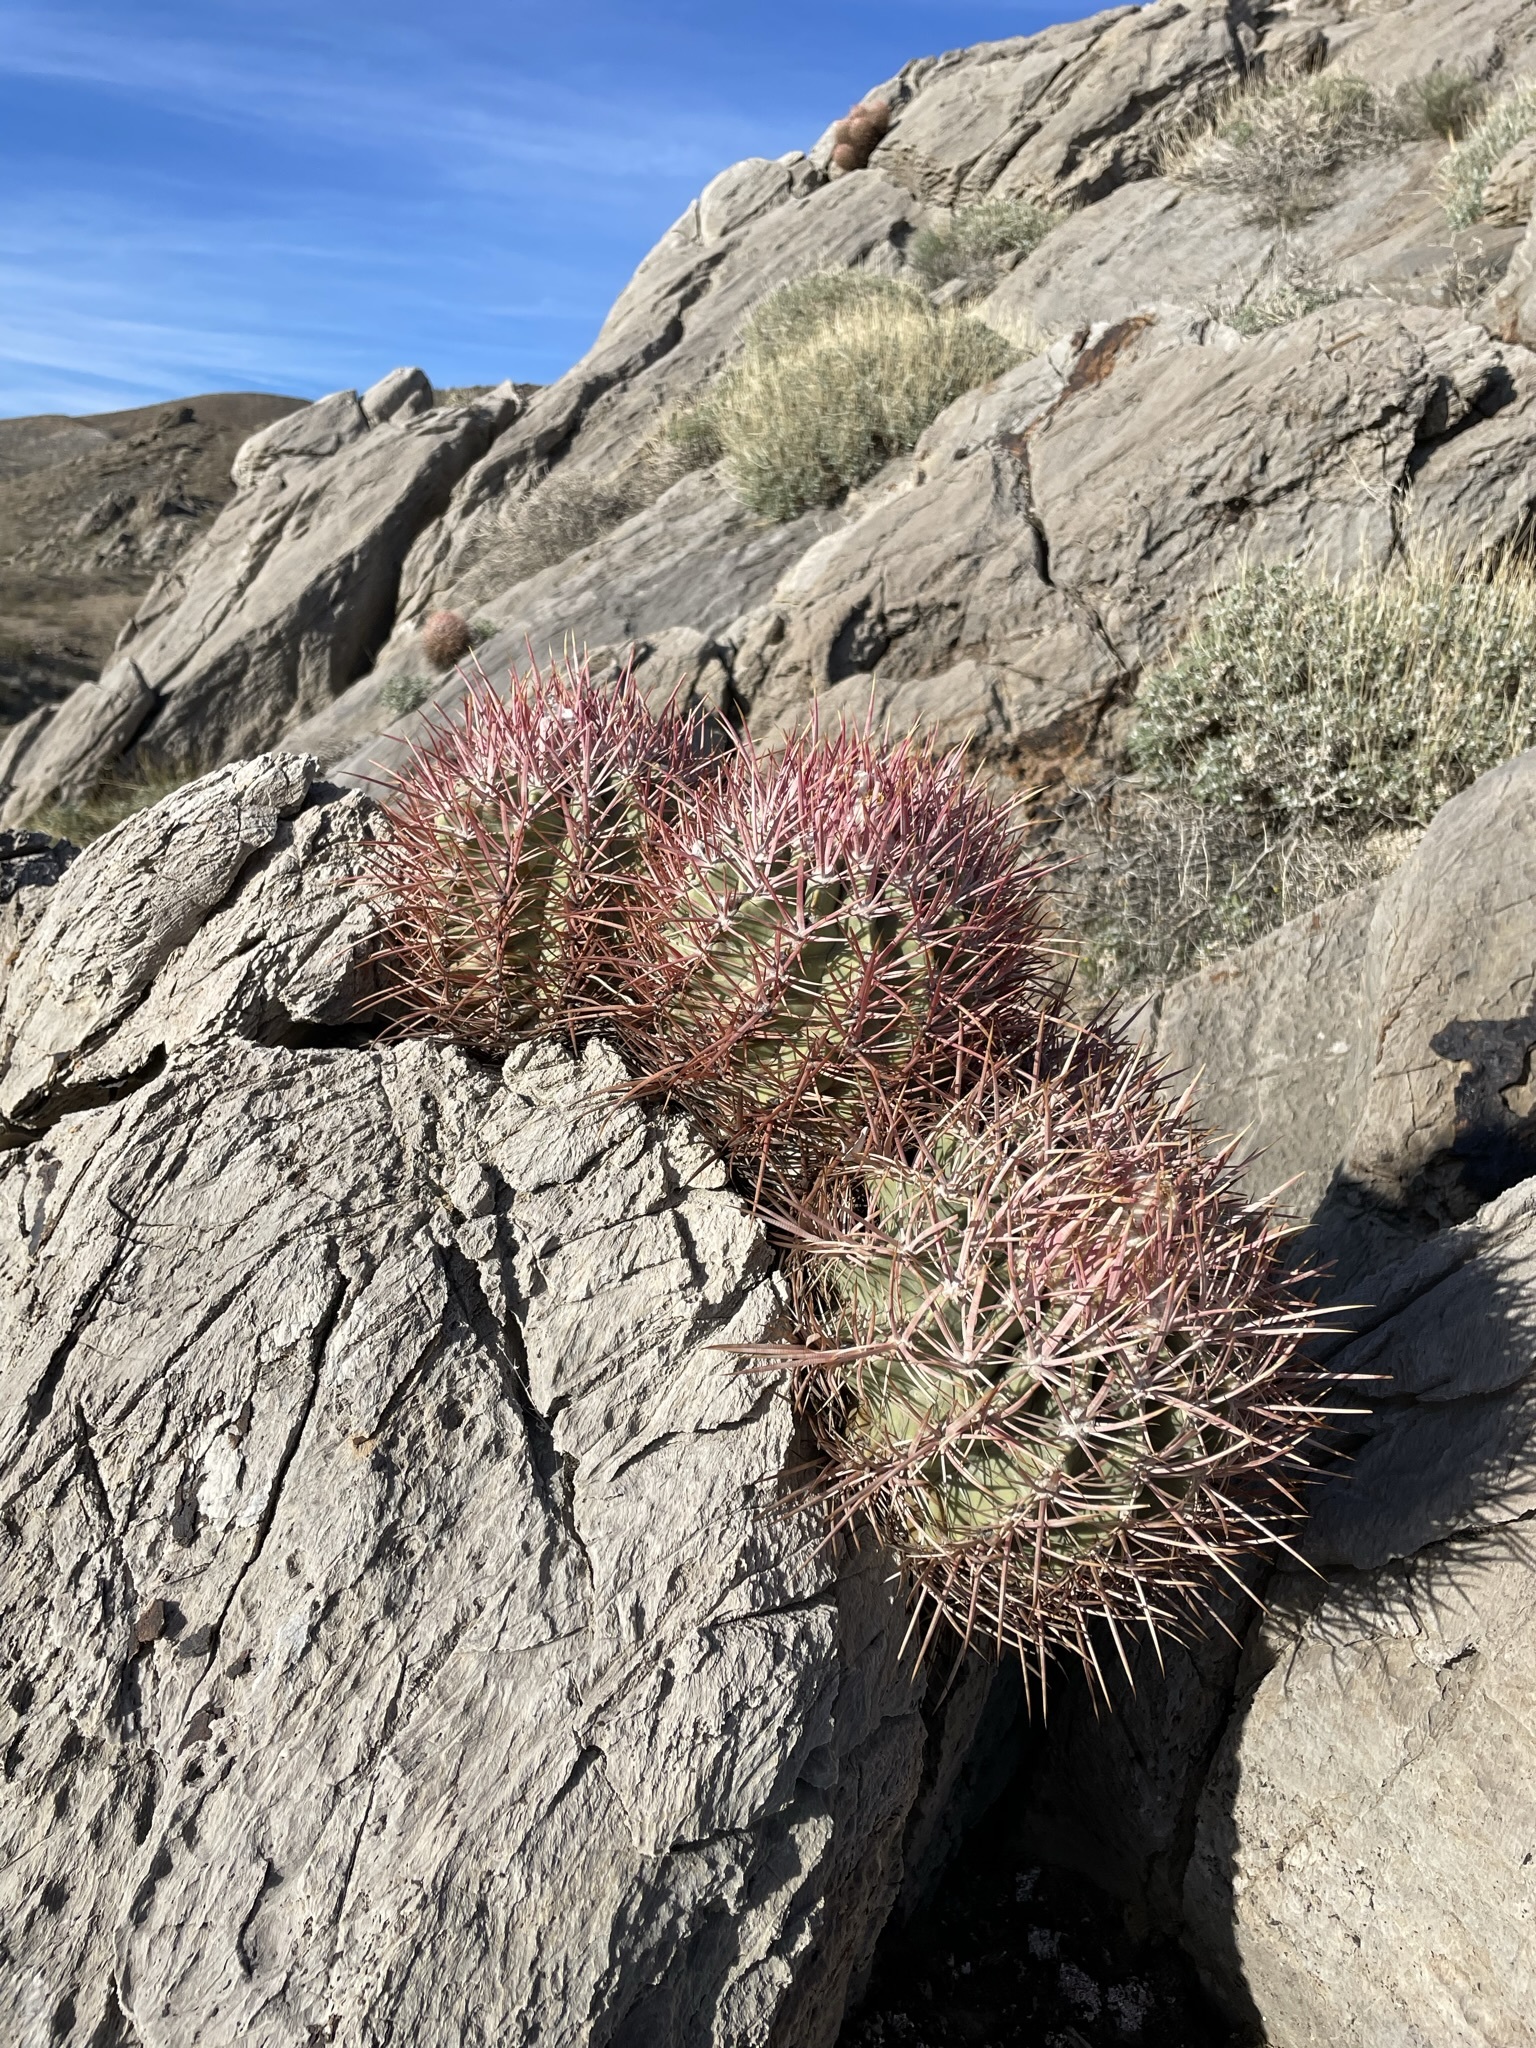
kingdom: Plantae
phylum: Tracheophyta
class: Magnoliopsida
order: Caryophyllales
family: Cactaceae
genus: Echinocactus
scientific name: Echinocactus polycephalus
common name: Cottontop cactus
